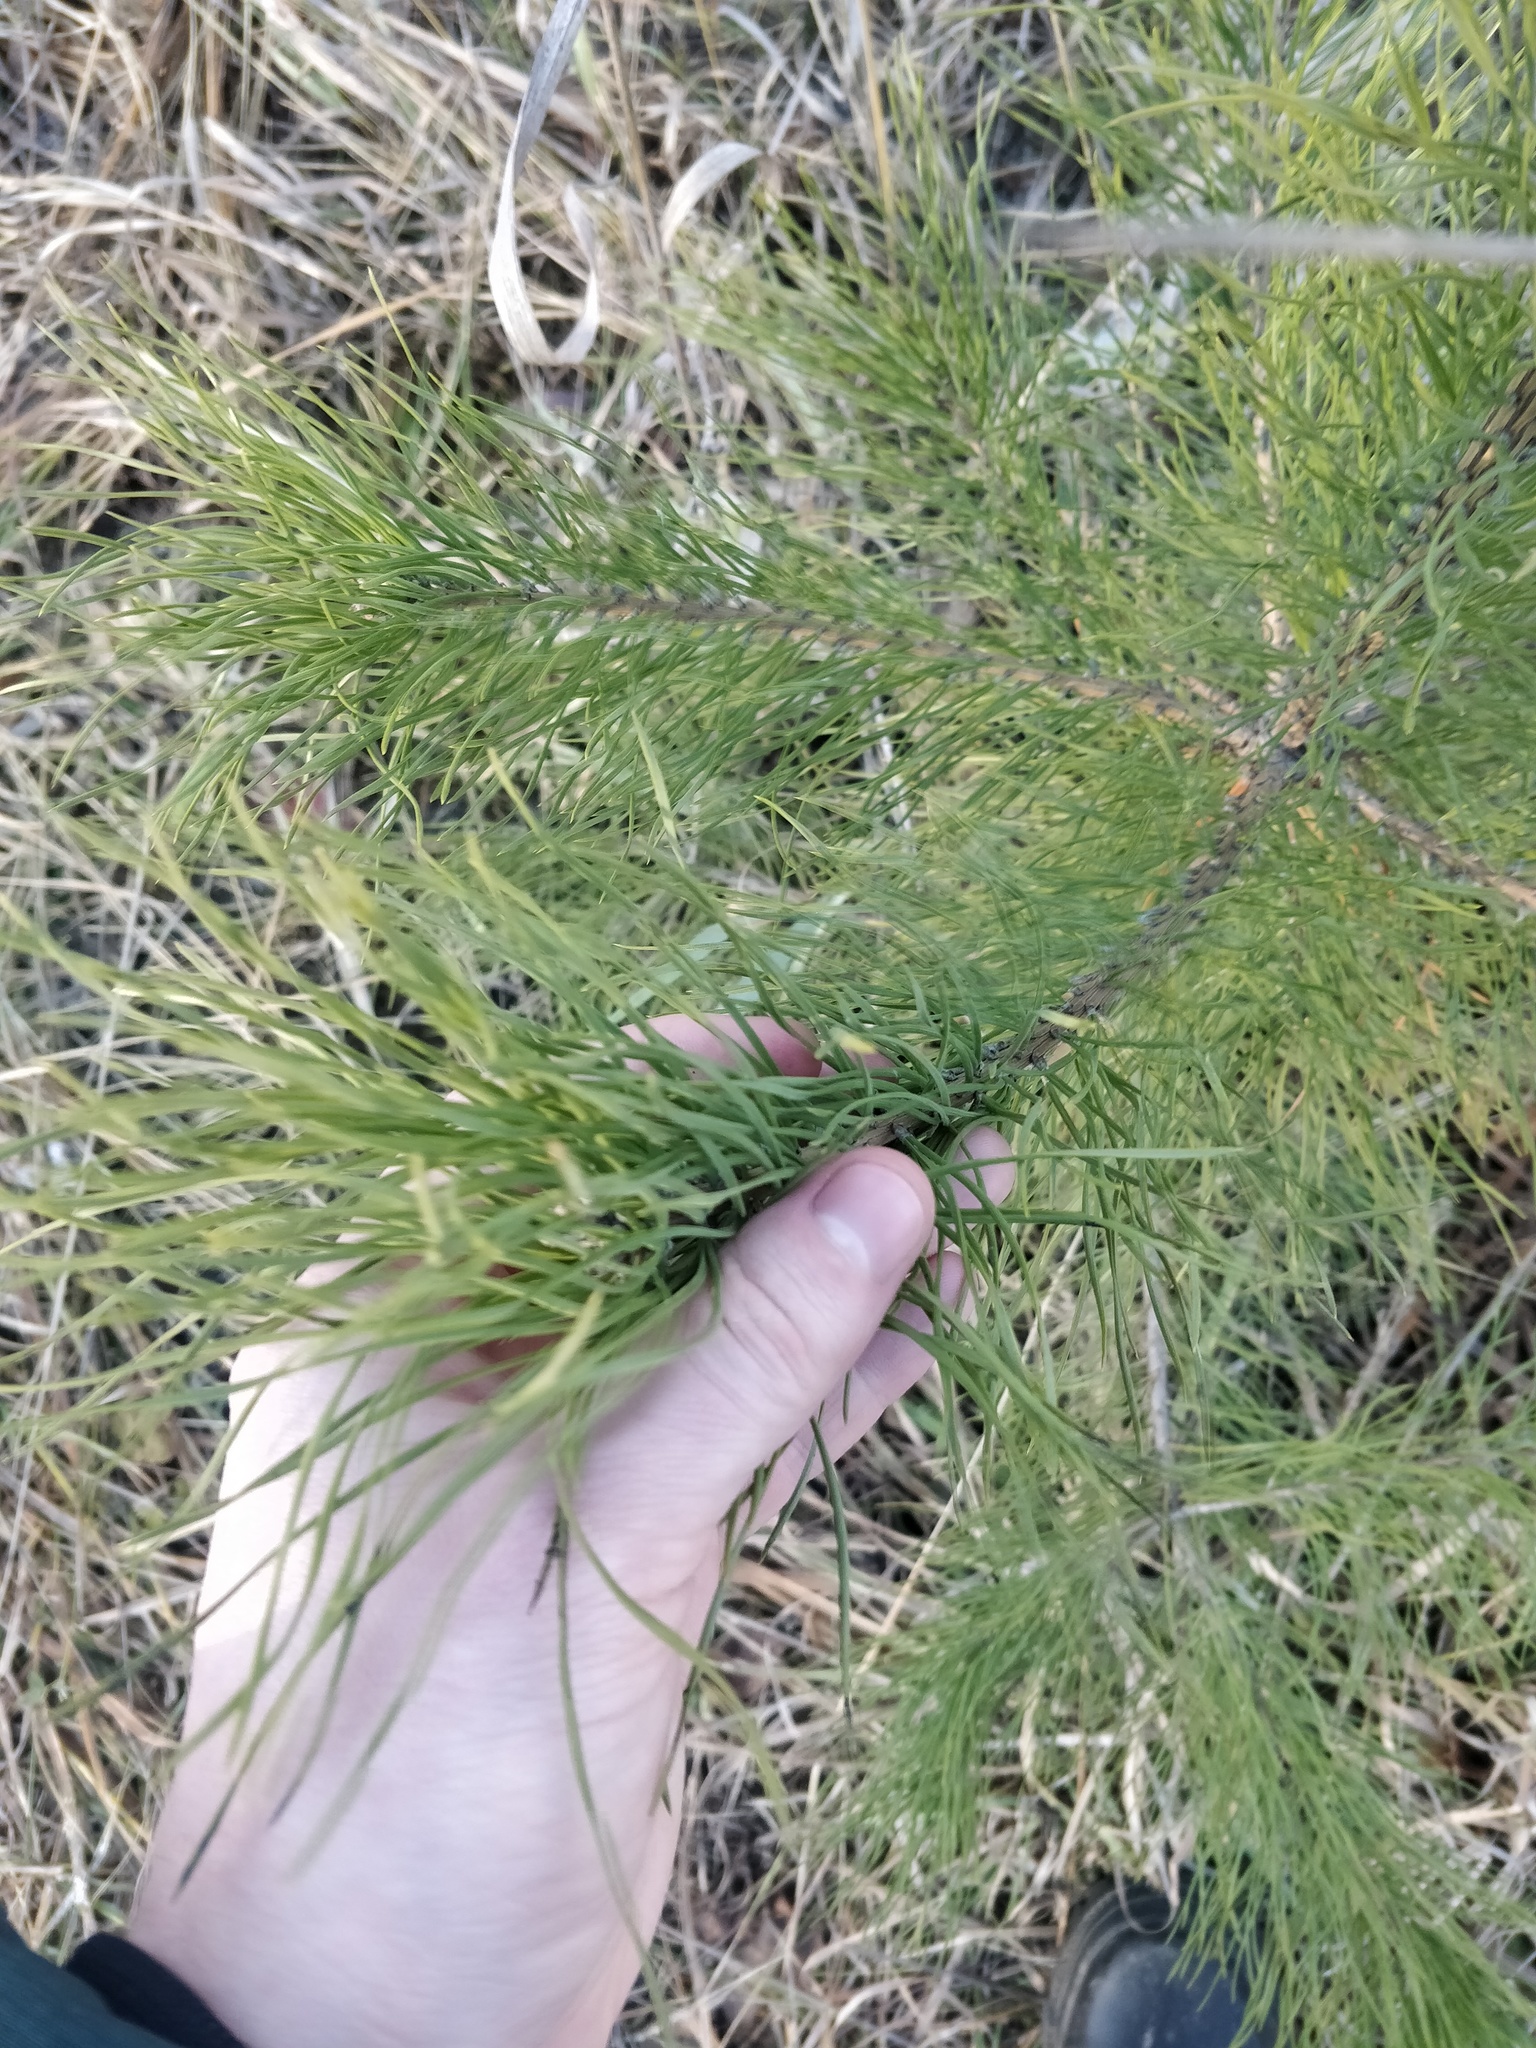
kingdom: Plantae
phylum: Tracheophyta
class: Pinopsida
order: Pinales
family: Pinaceae
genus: Pinus
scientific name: Pinus sylvestris
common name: Scots pine
